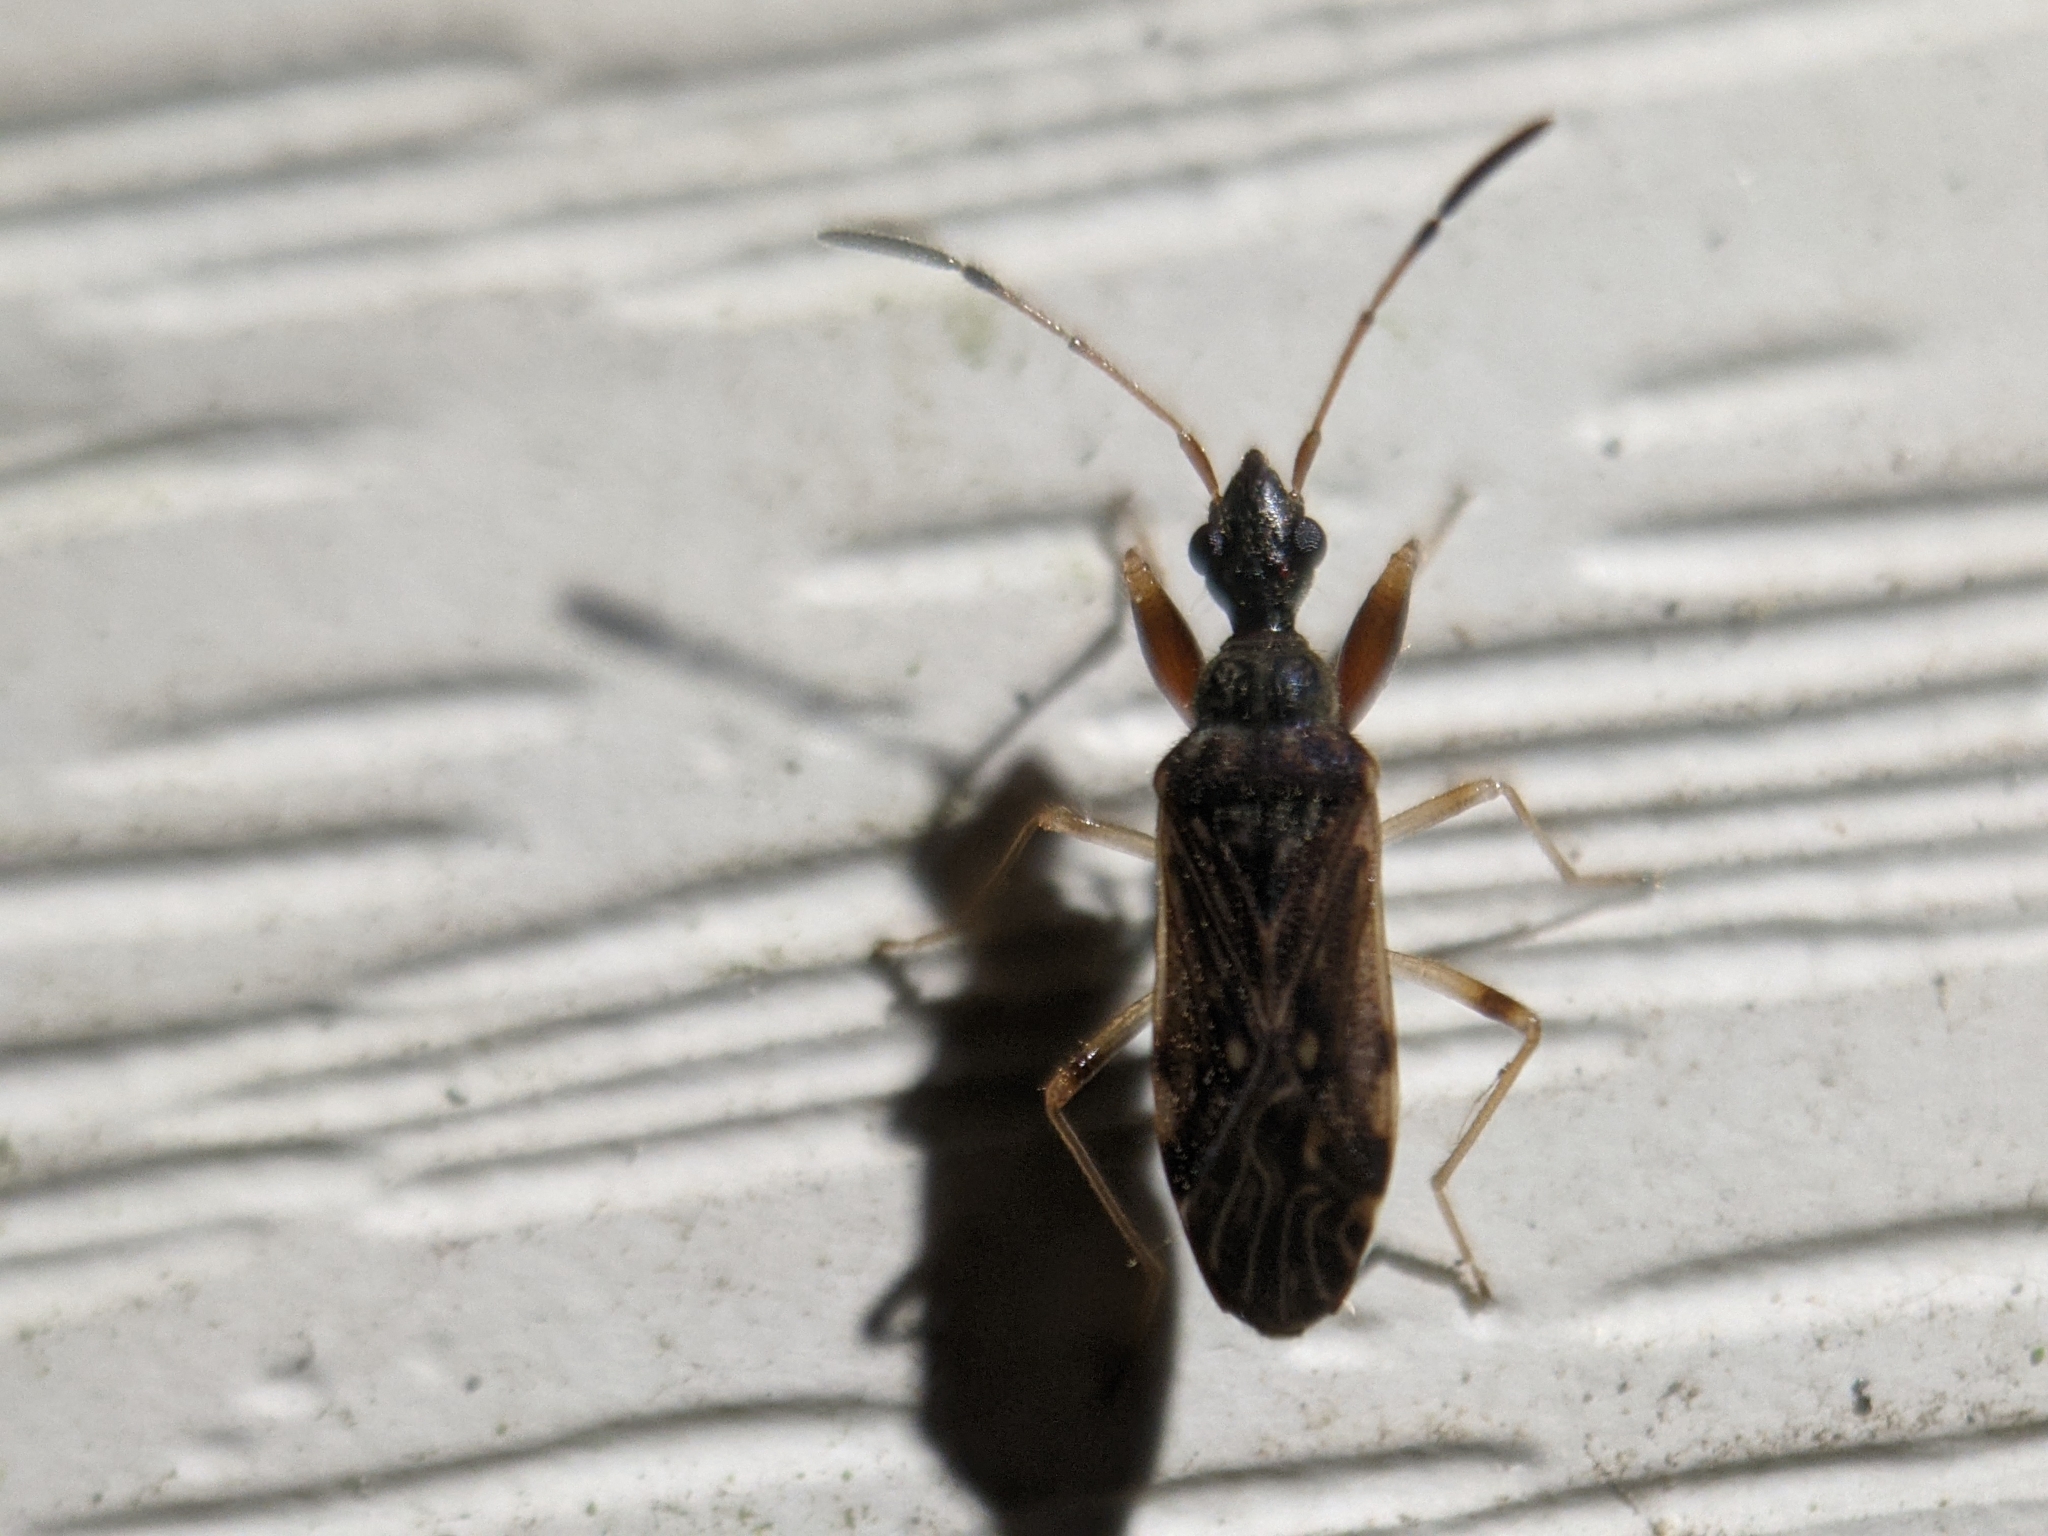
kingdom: Animalia
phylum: Arthropoda
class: Insecta
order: Hemiptera
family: Rhyparochromidae
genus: Heraeus
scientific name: Heraeus plebejus
